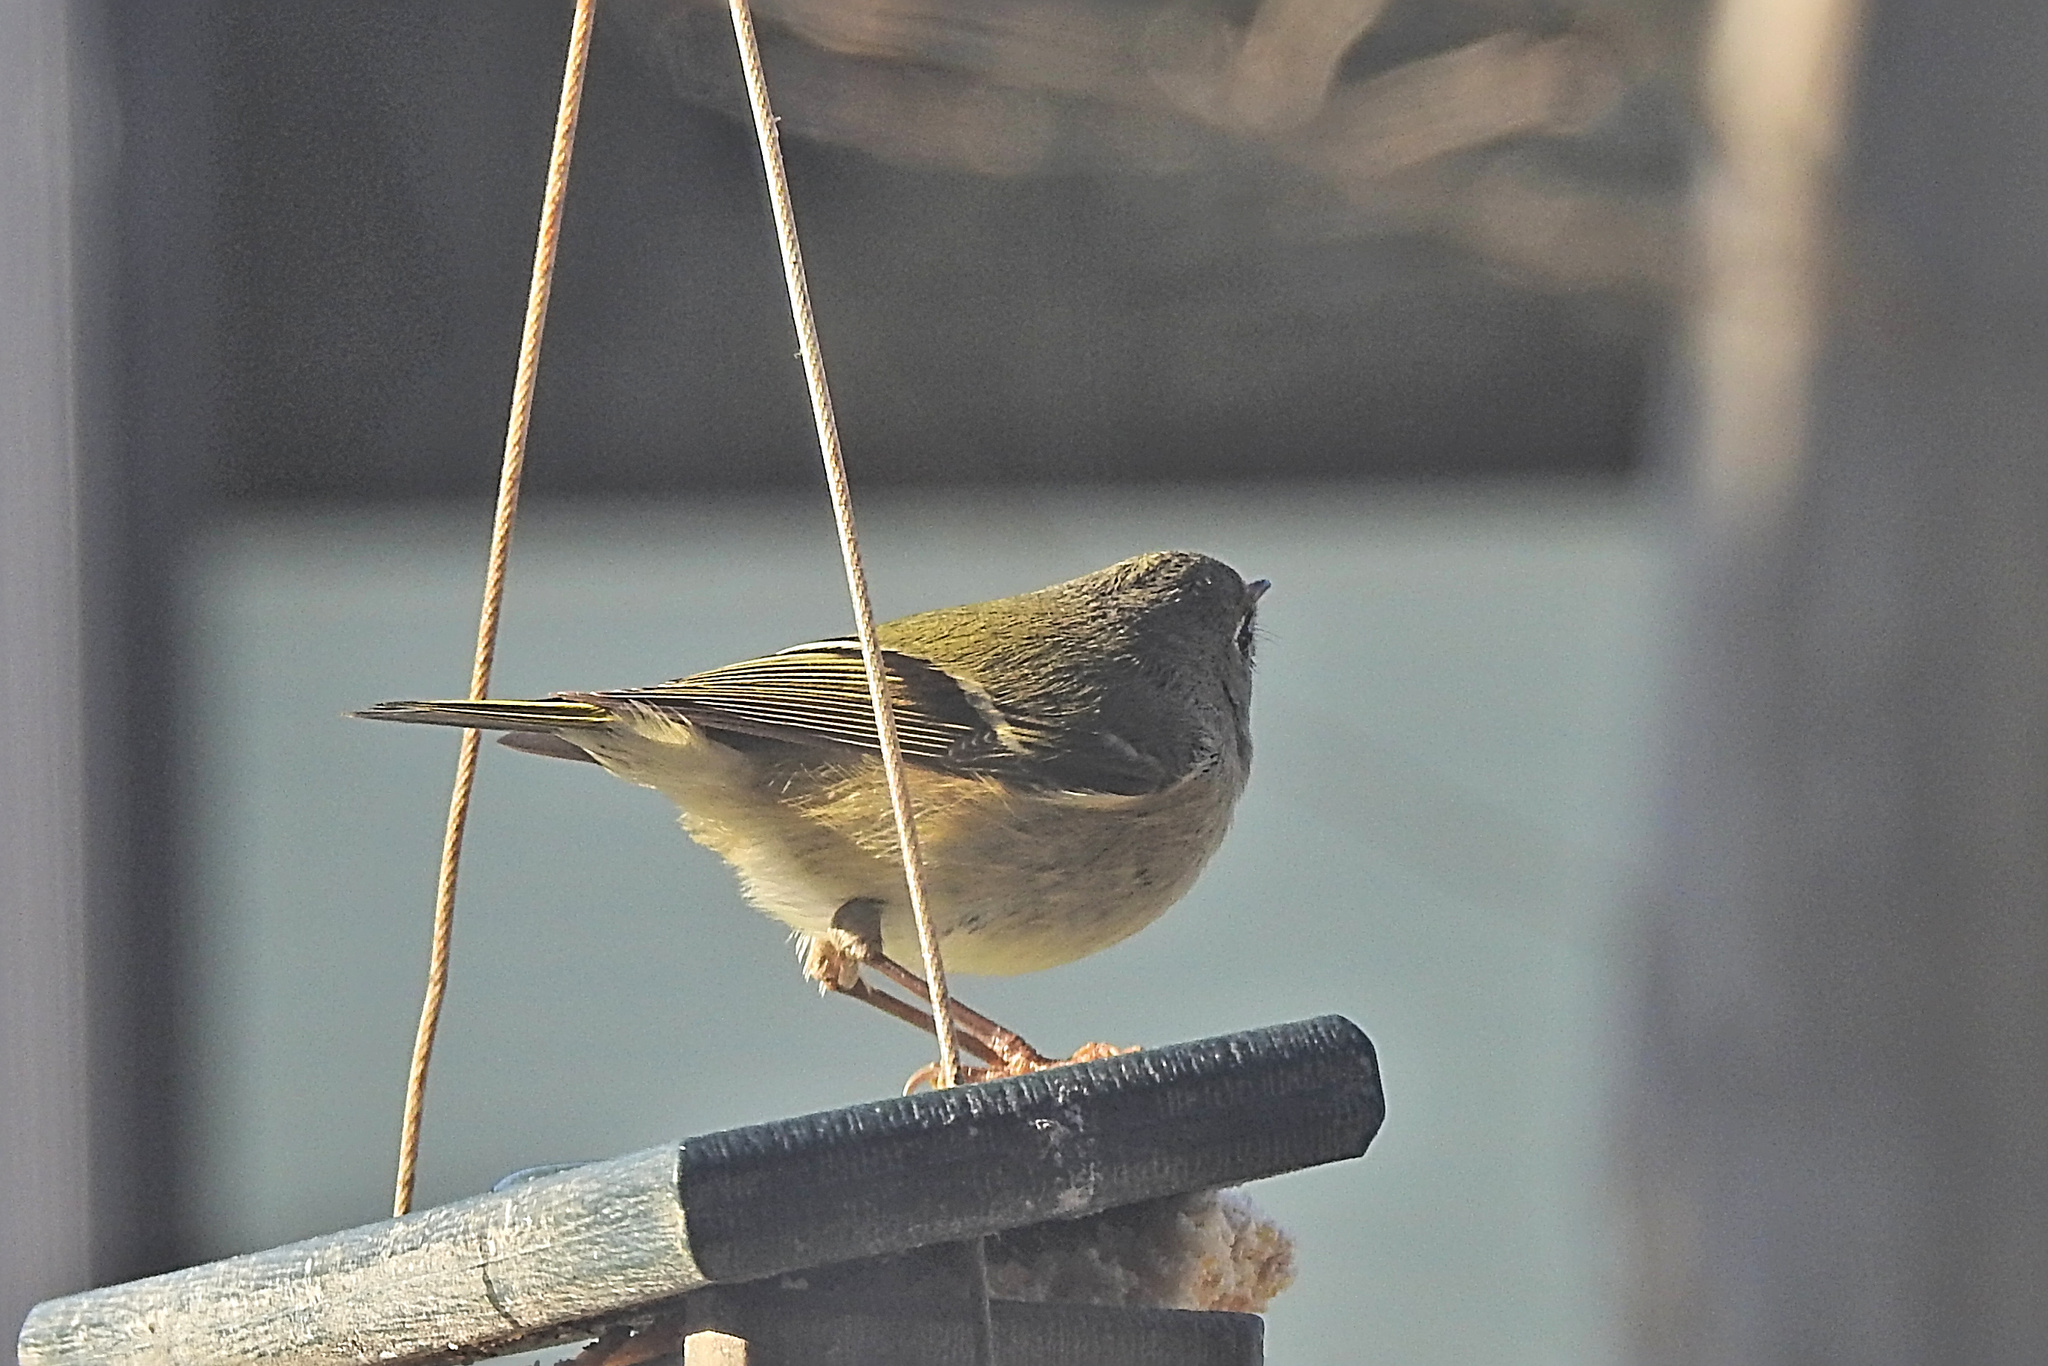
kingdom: Animalia
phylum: Chordata
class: Aves
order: Passeriformes
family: Regulidae
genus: Regulus
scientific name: Regulus calendula
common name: Ruby-crowned kinglet
